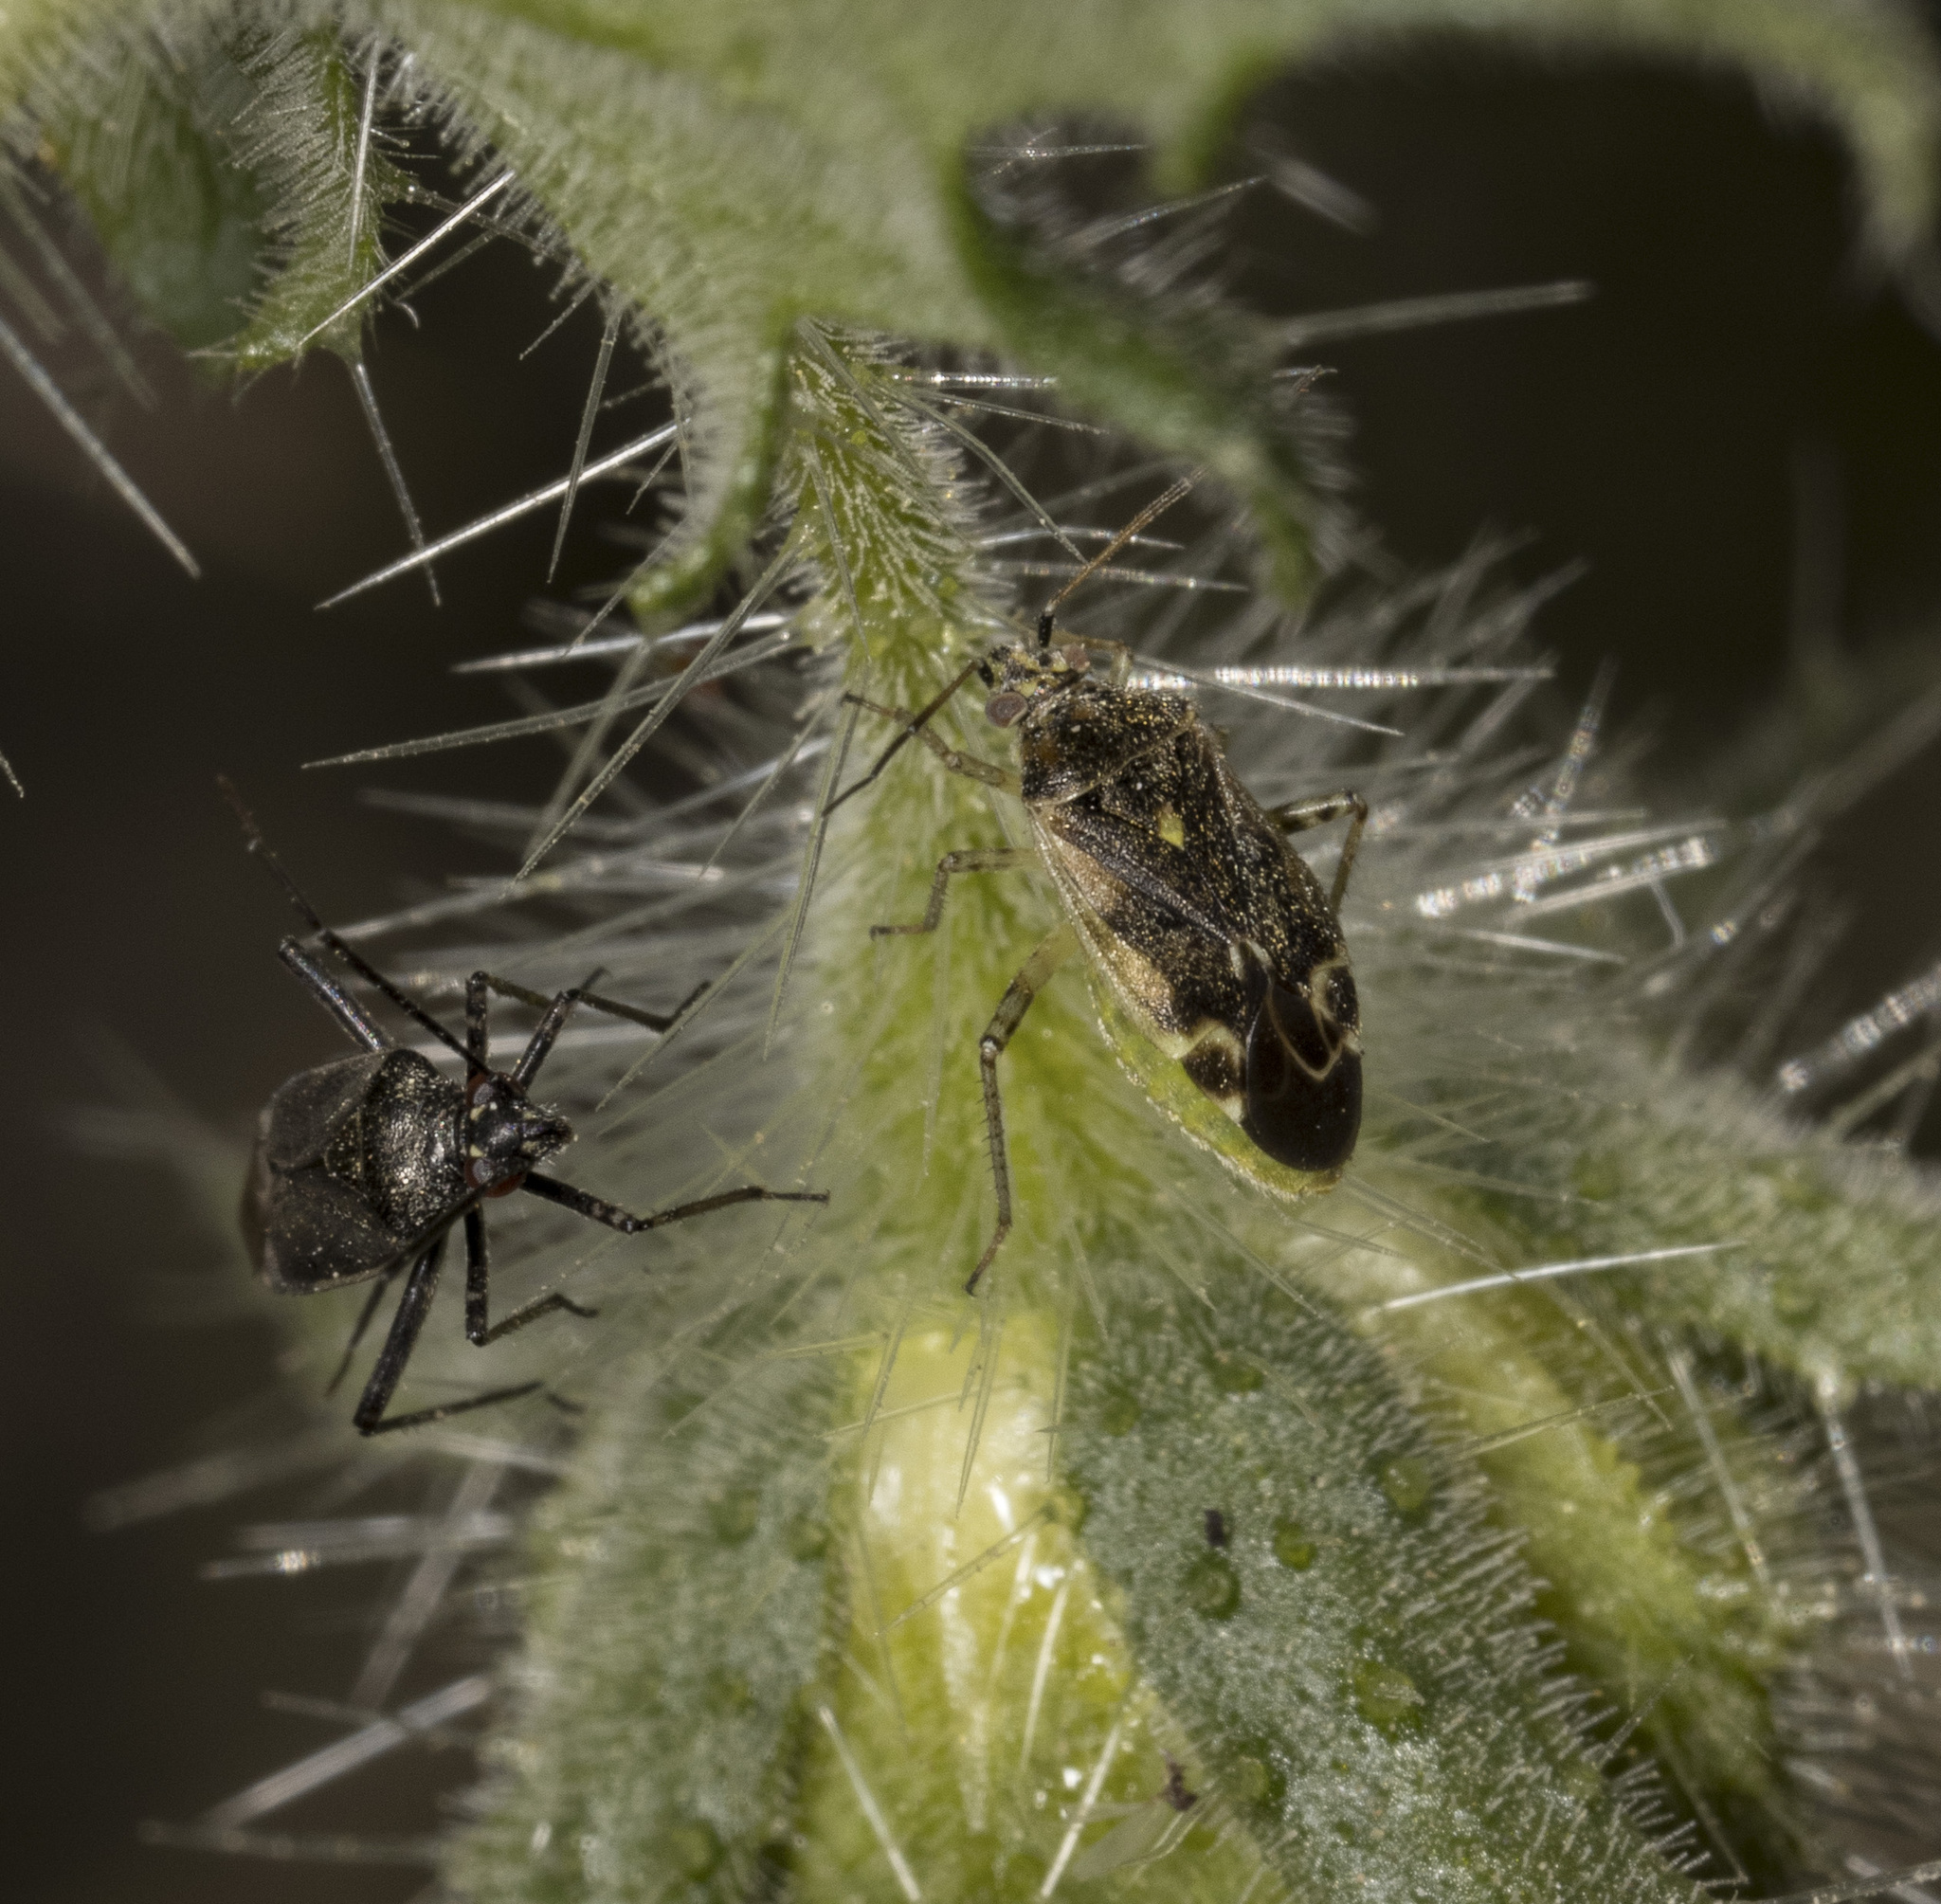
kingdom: Animalia
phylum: Arthropoda
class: Insecta
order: Hemiptera
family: Miridae
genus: Polymerus
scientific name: Polymerus chilensis
